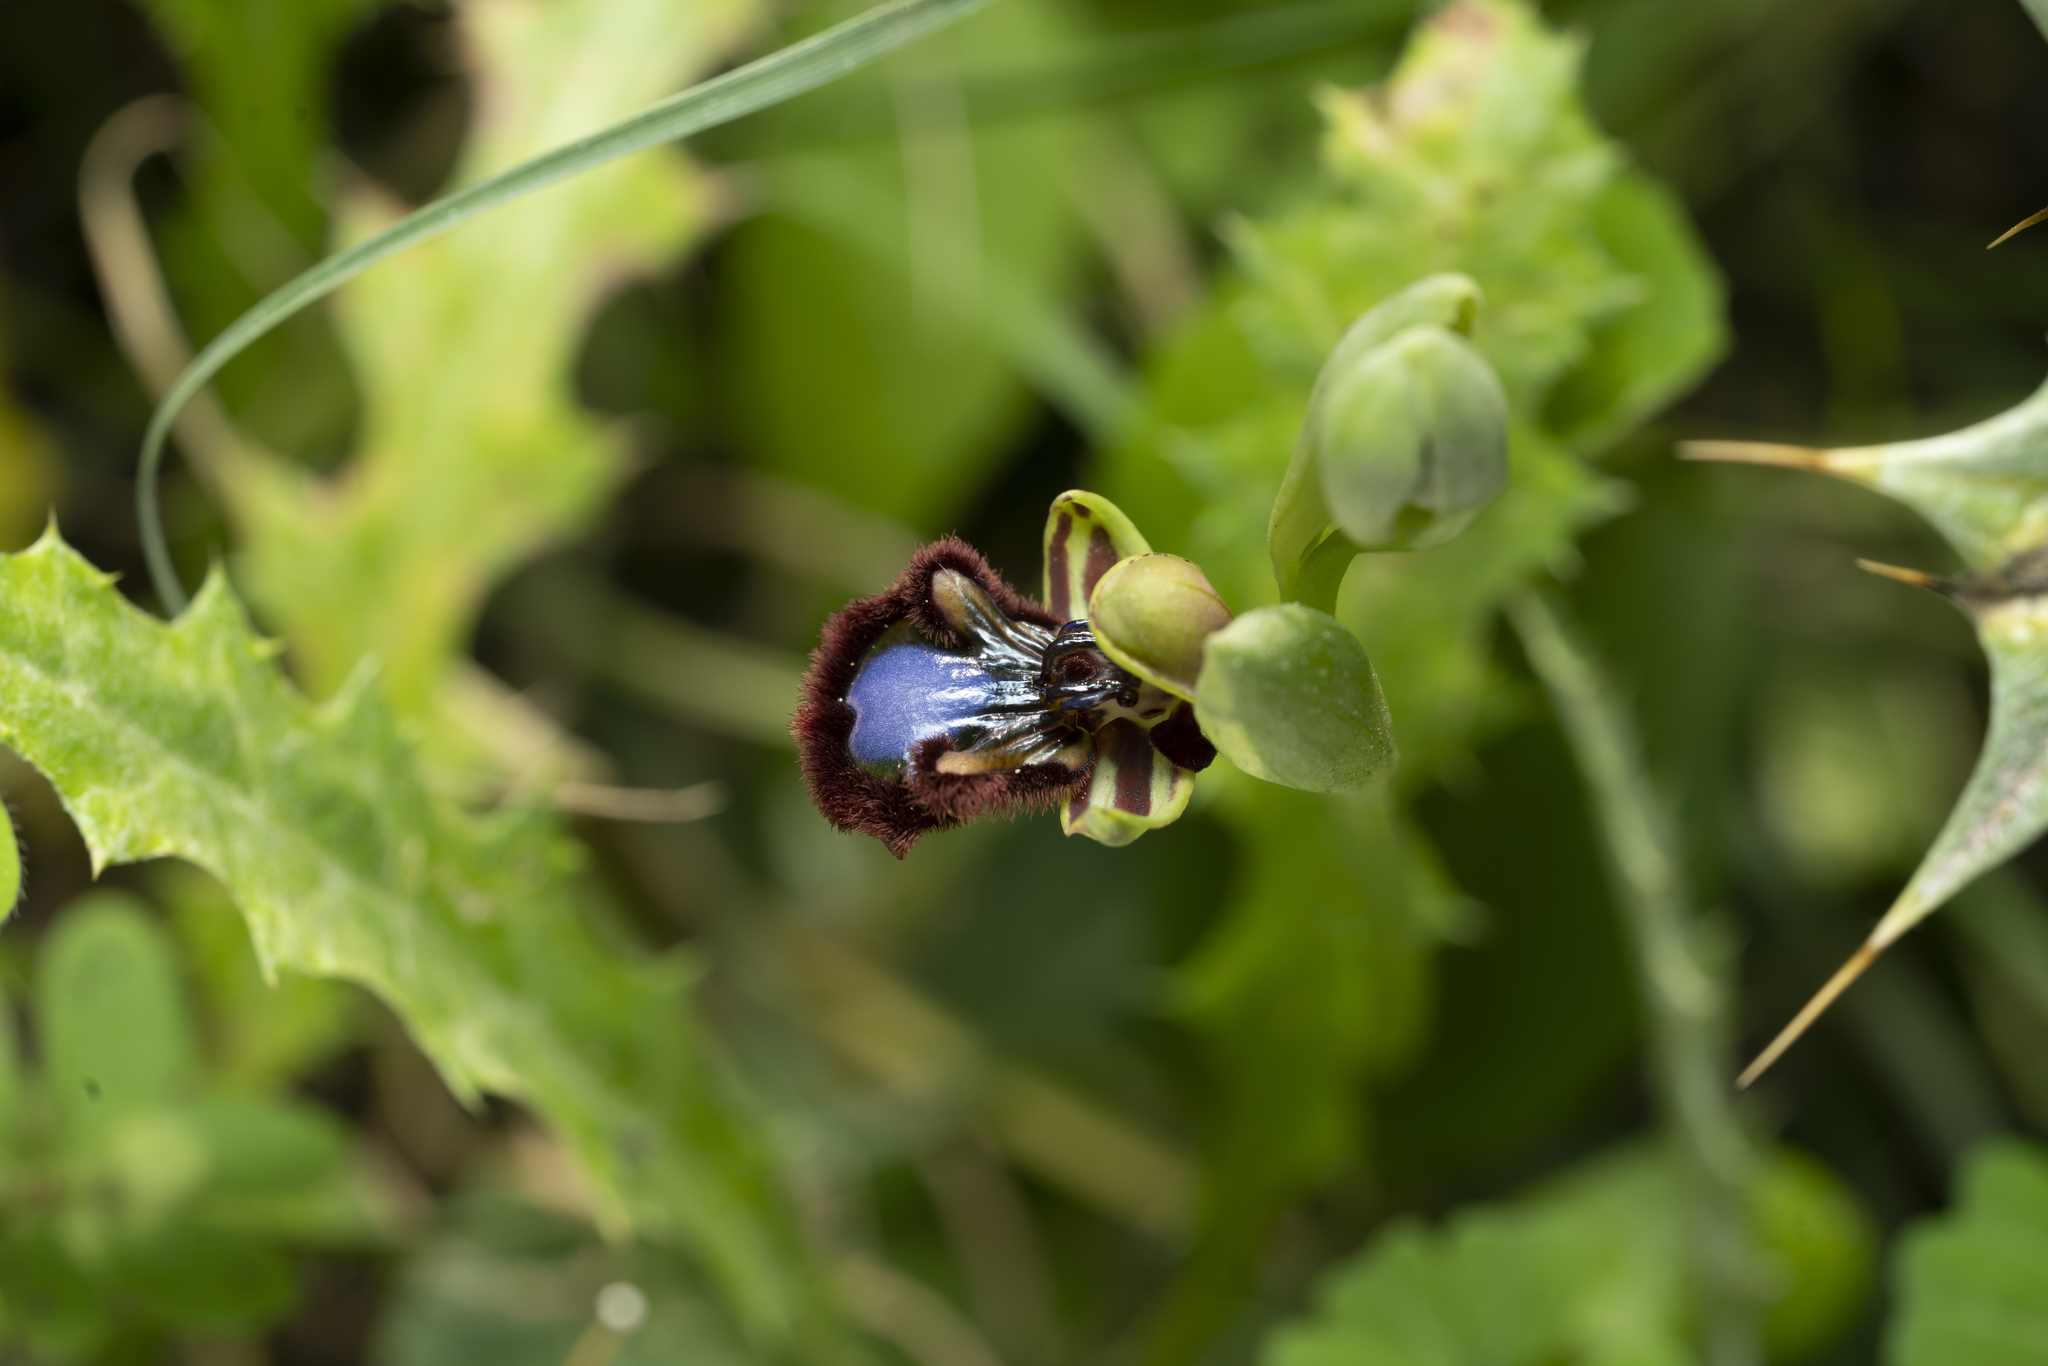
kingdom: Plantae
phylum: Tracheophyta
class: Liliopsida
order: Asparagales
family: Orchidaceae
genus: Ophrys
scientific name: Ophrys speculum
